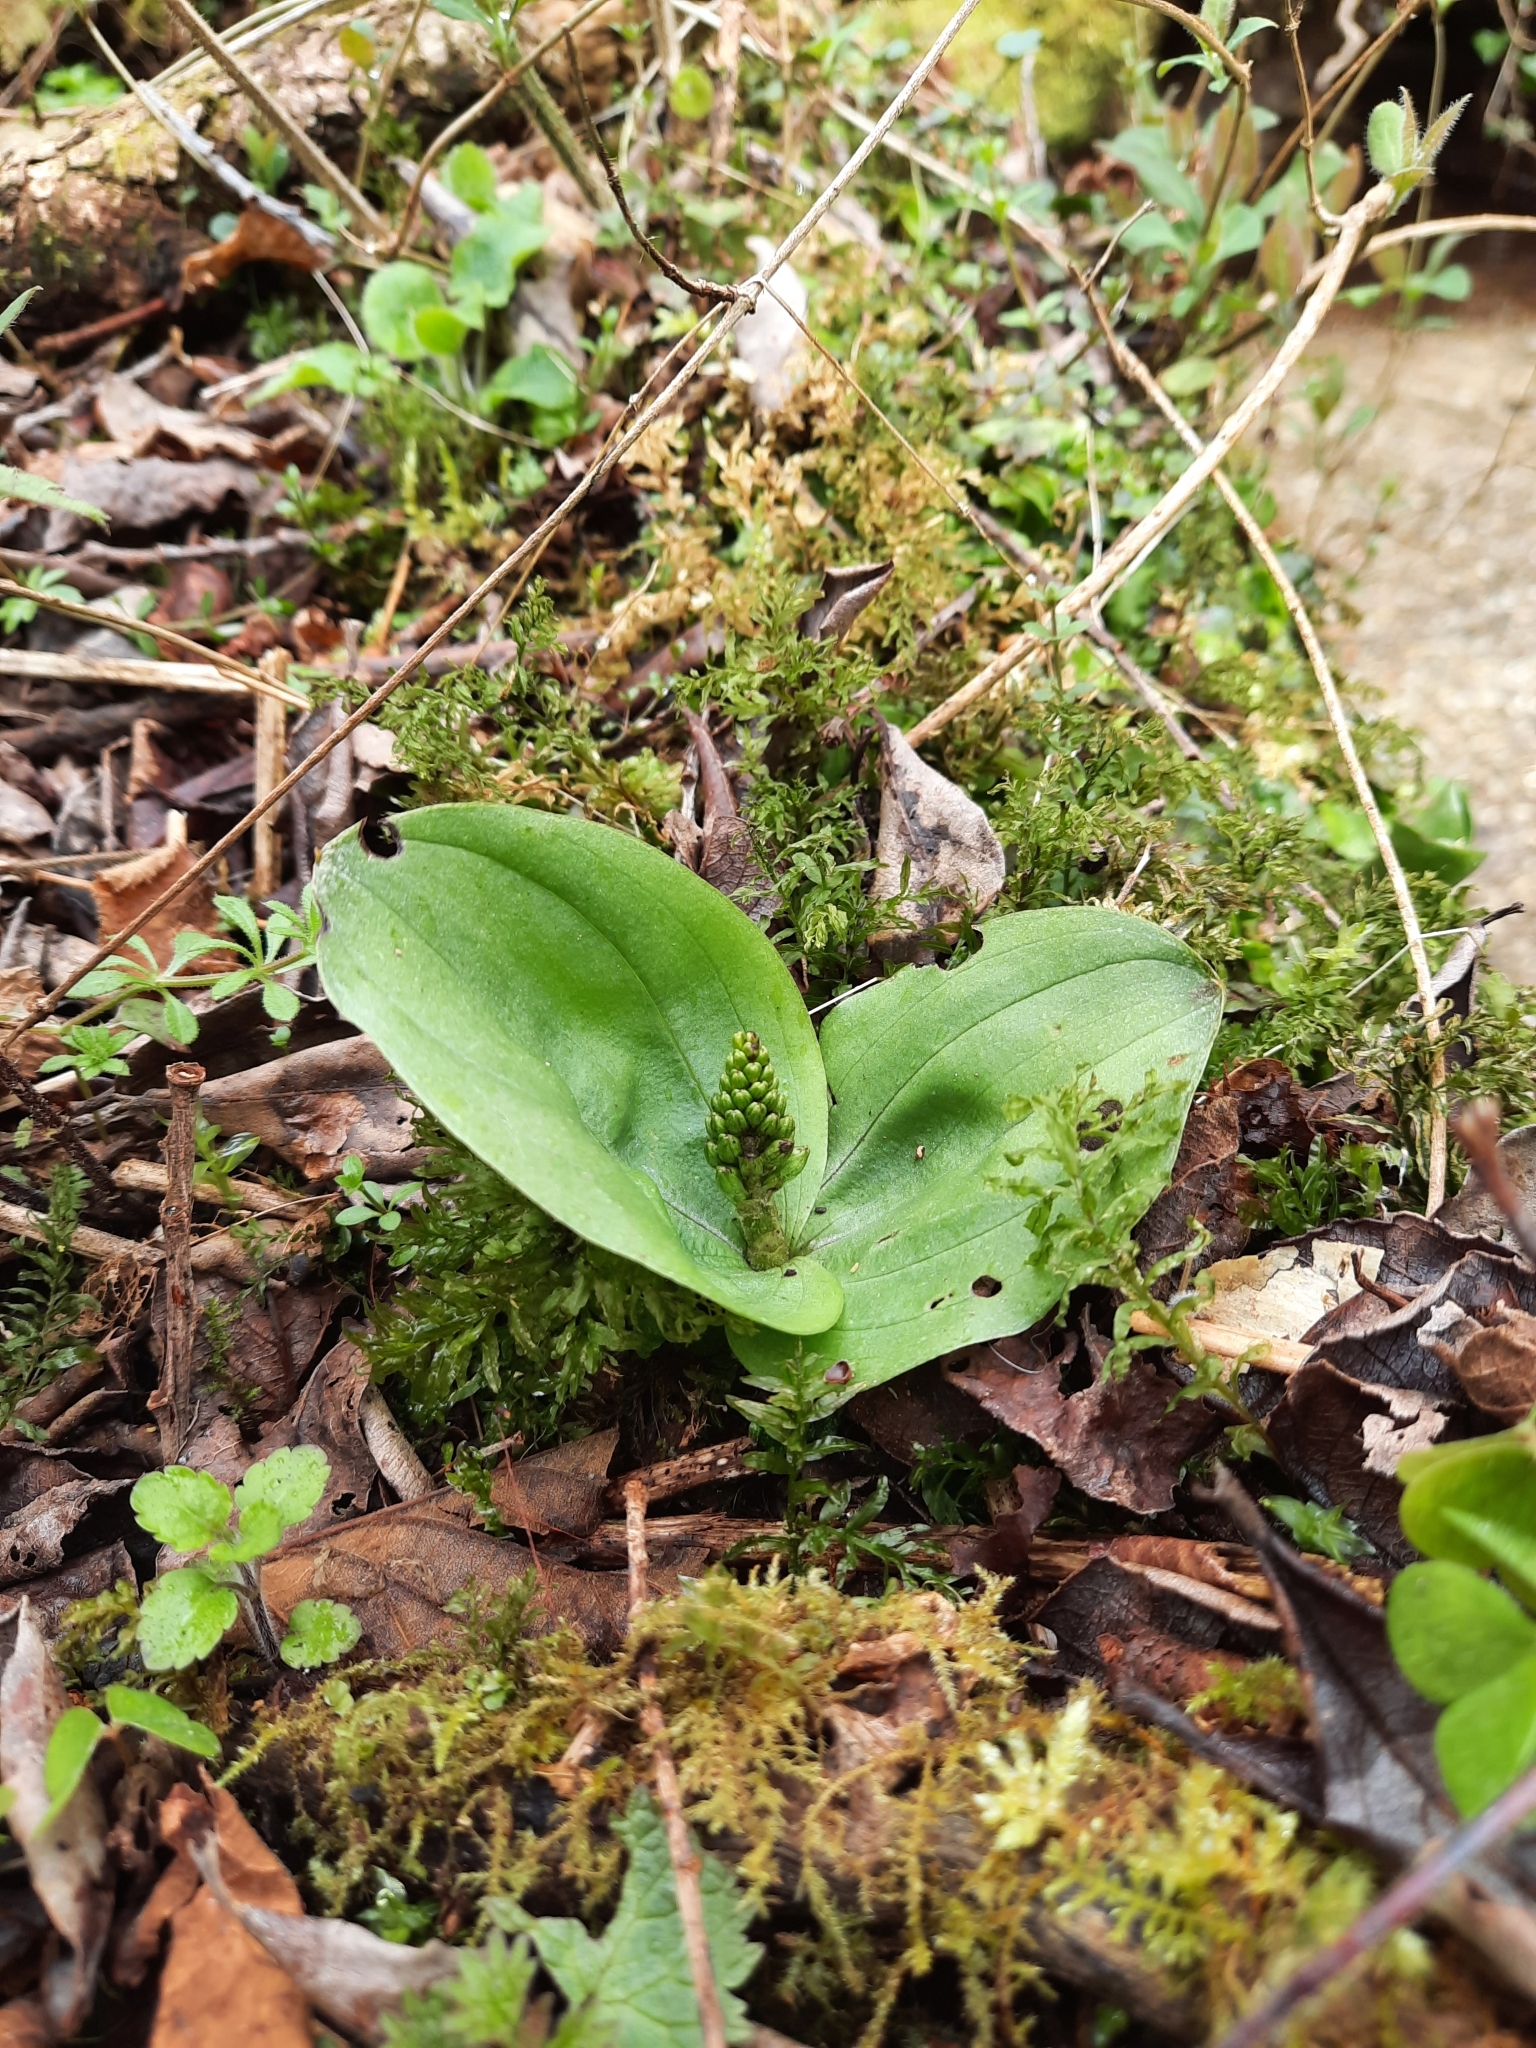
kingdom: Plantae
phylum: Tracheophyta
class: Liliopsida
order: Asparagales
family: Orchidaceae
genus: Neottia
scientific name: Neottia ovata
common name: Common twayblade
